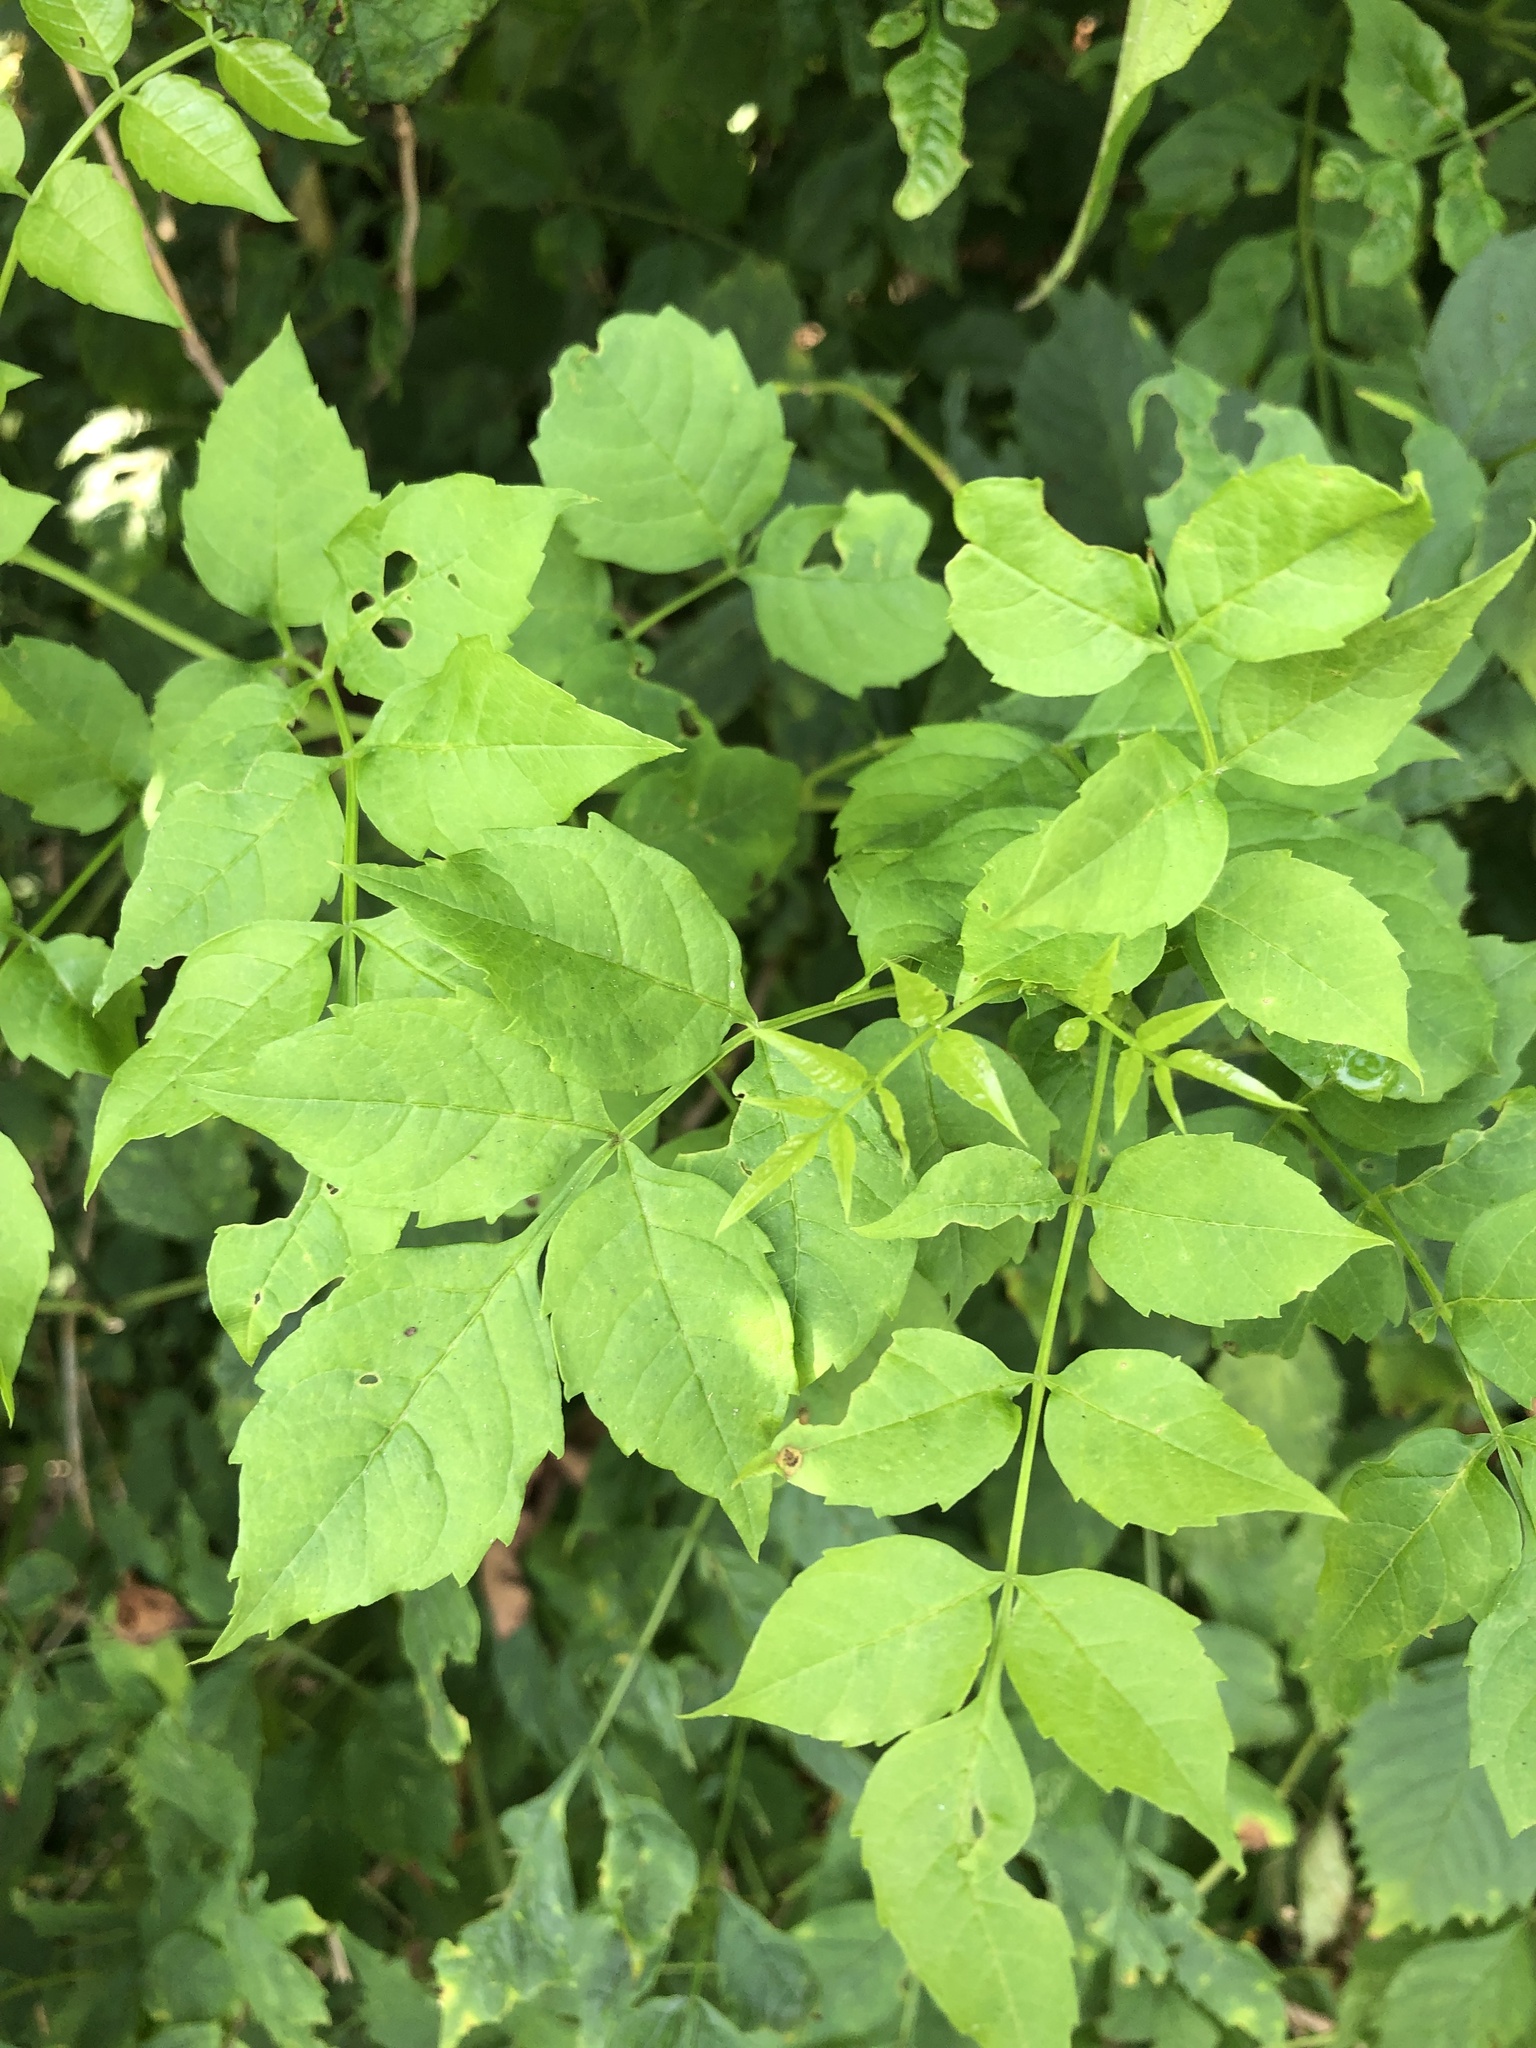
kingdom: Plantae
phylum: Tracheophyta
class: Magnoliopsida
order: Lamiales
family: Bignoniaceae
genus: Campsis
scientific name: Campsis radicans
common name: Trumpet-creeper
